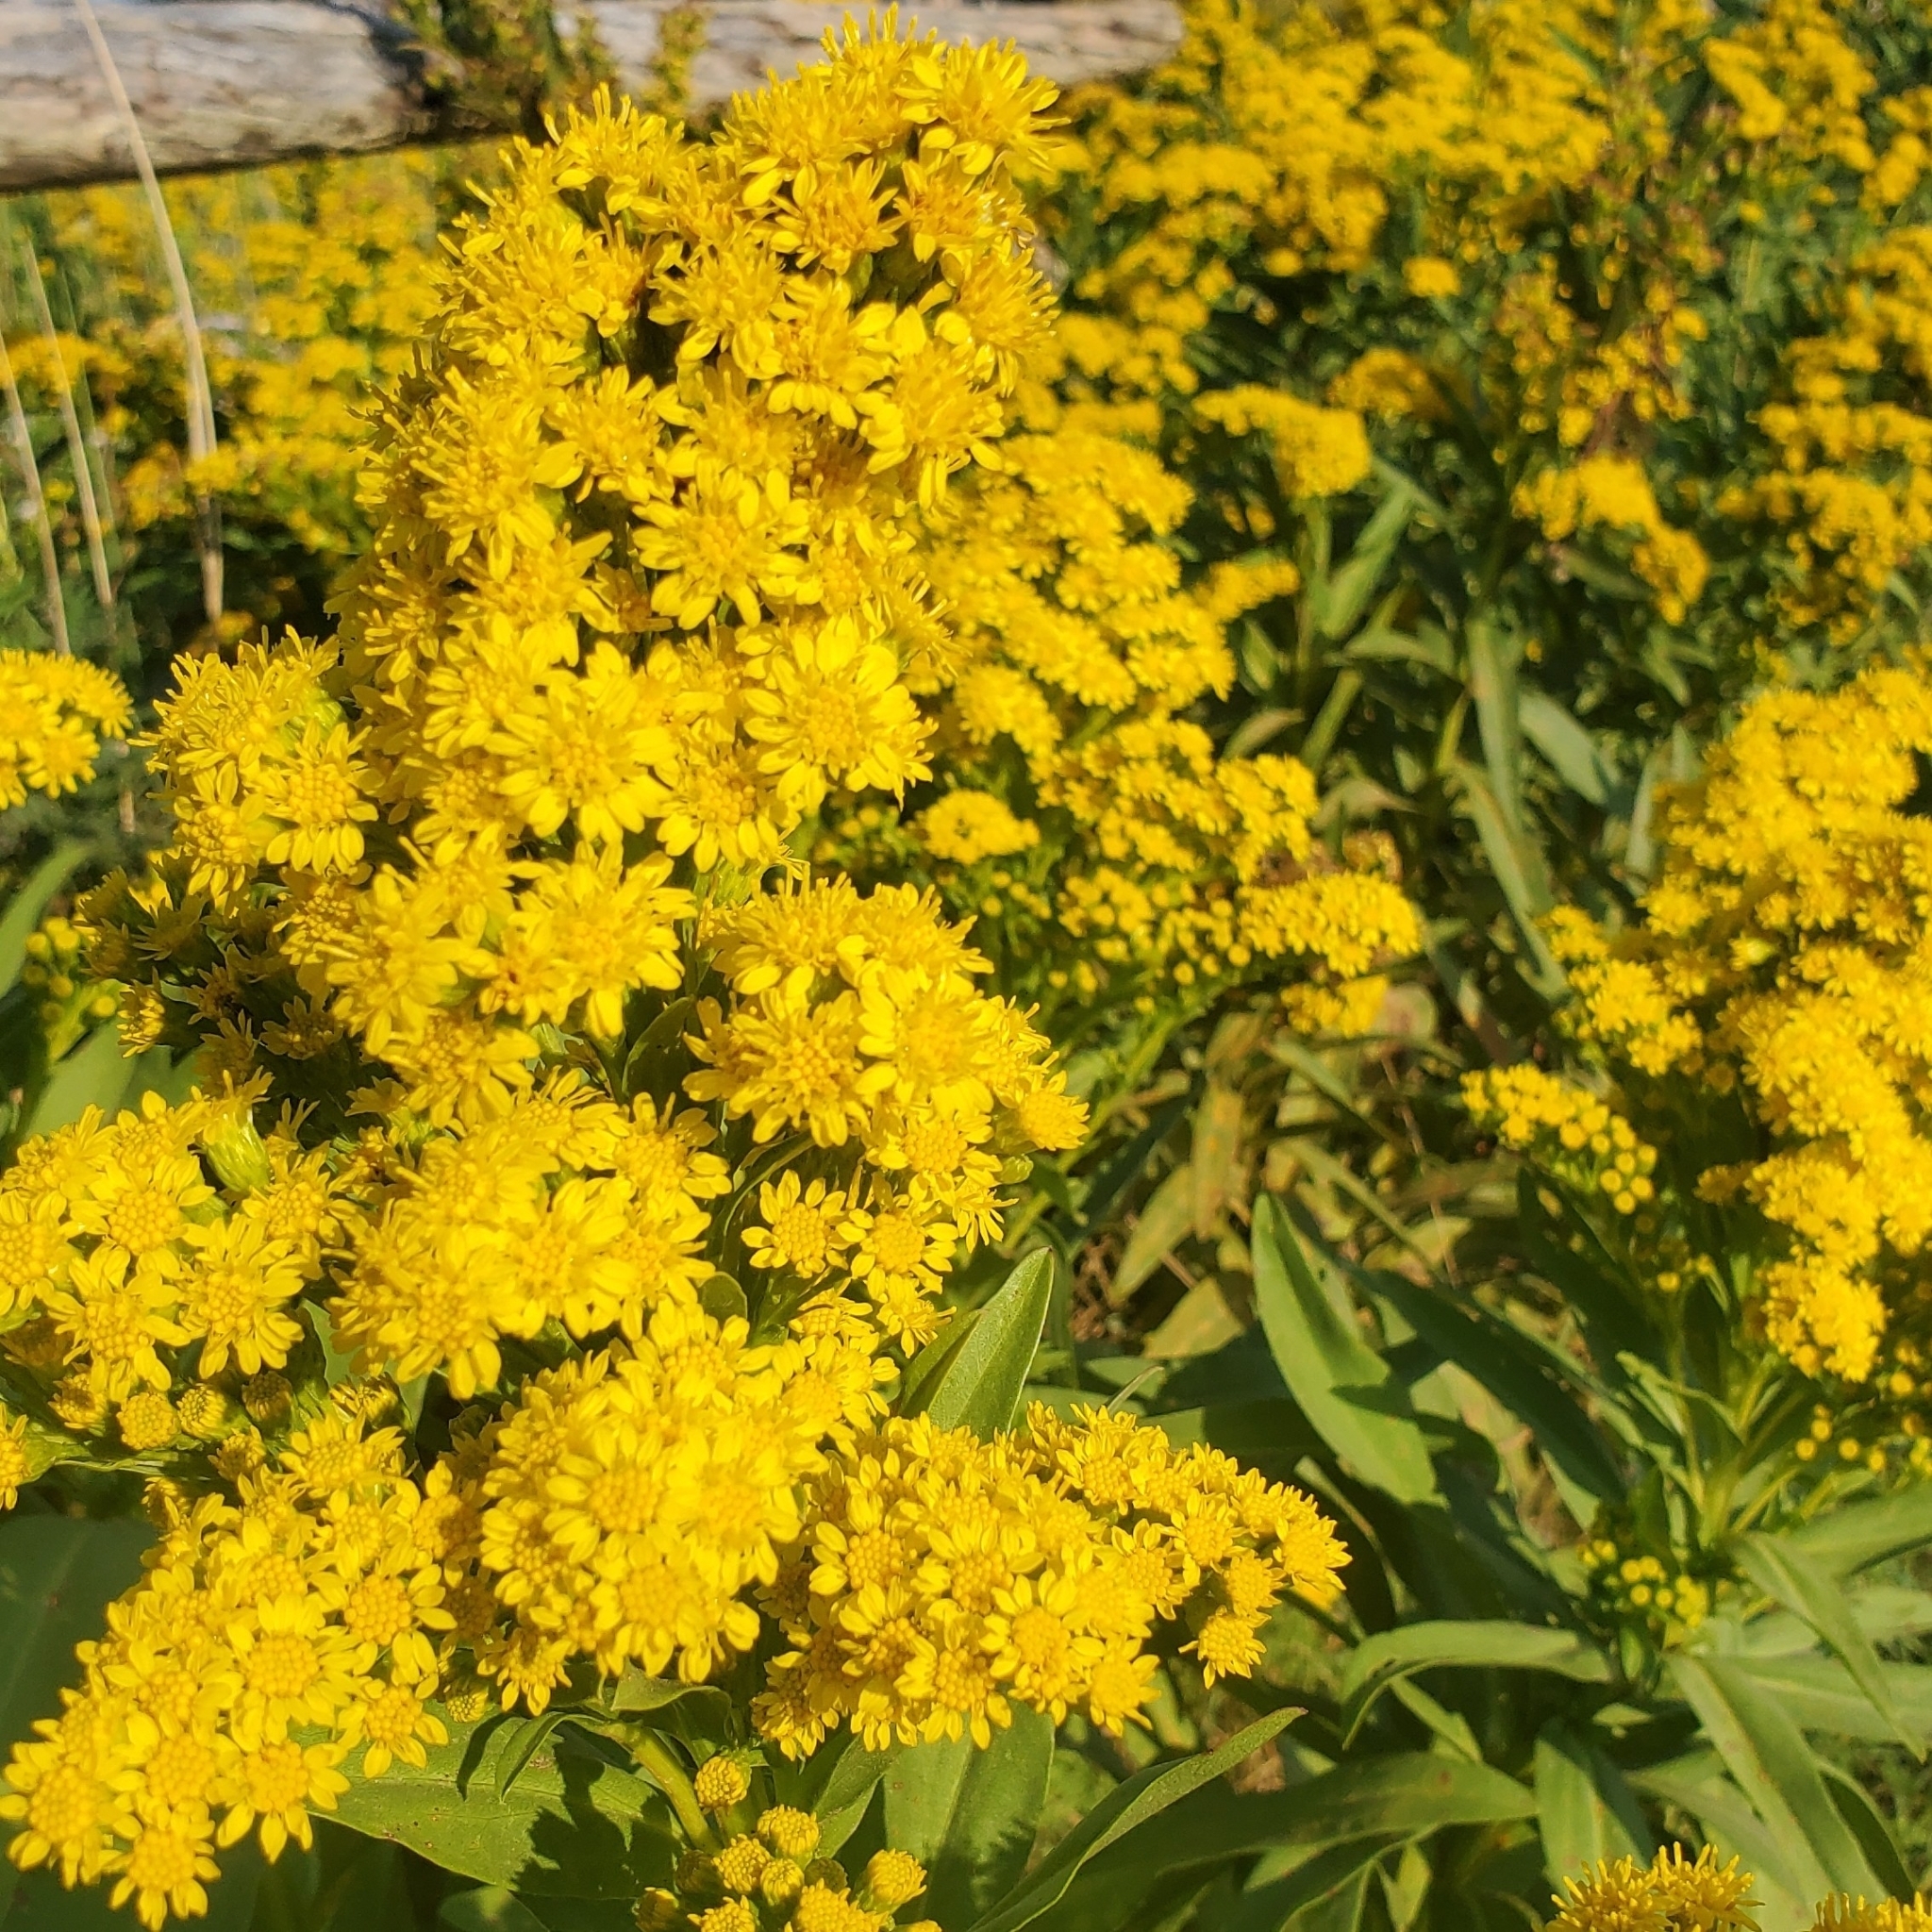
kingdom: Plantae
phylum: Tracheophyta
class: Magnoliopsida
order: Asterales
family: Asteraceae
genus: Solidago
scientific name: Solidago sempervirens
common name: Salt-marsh goldenrod
